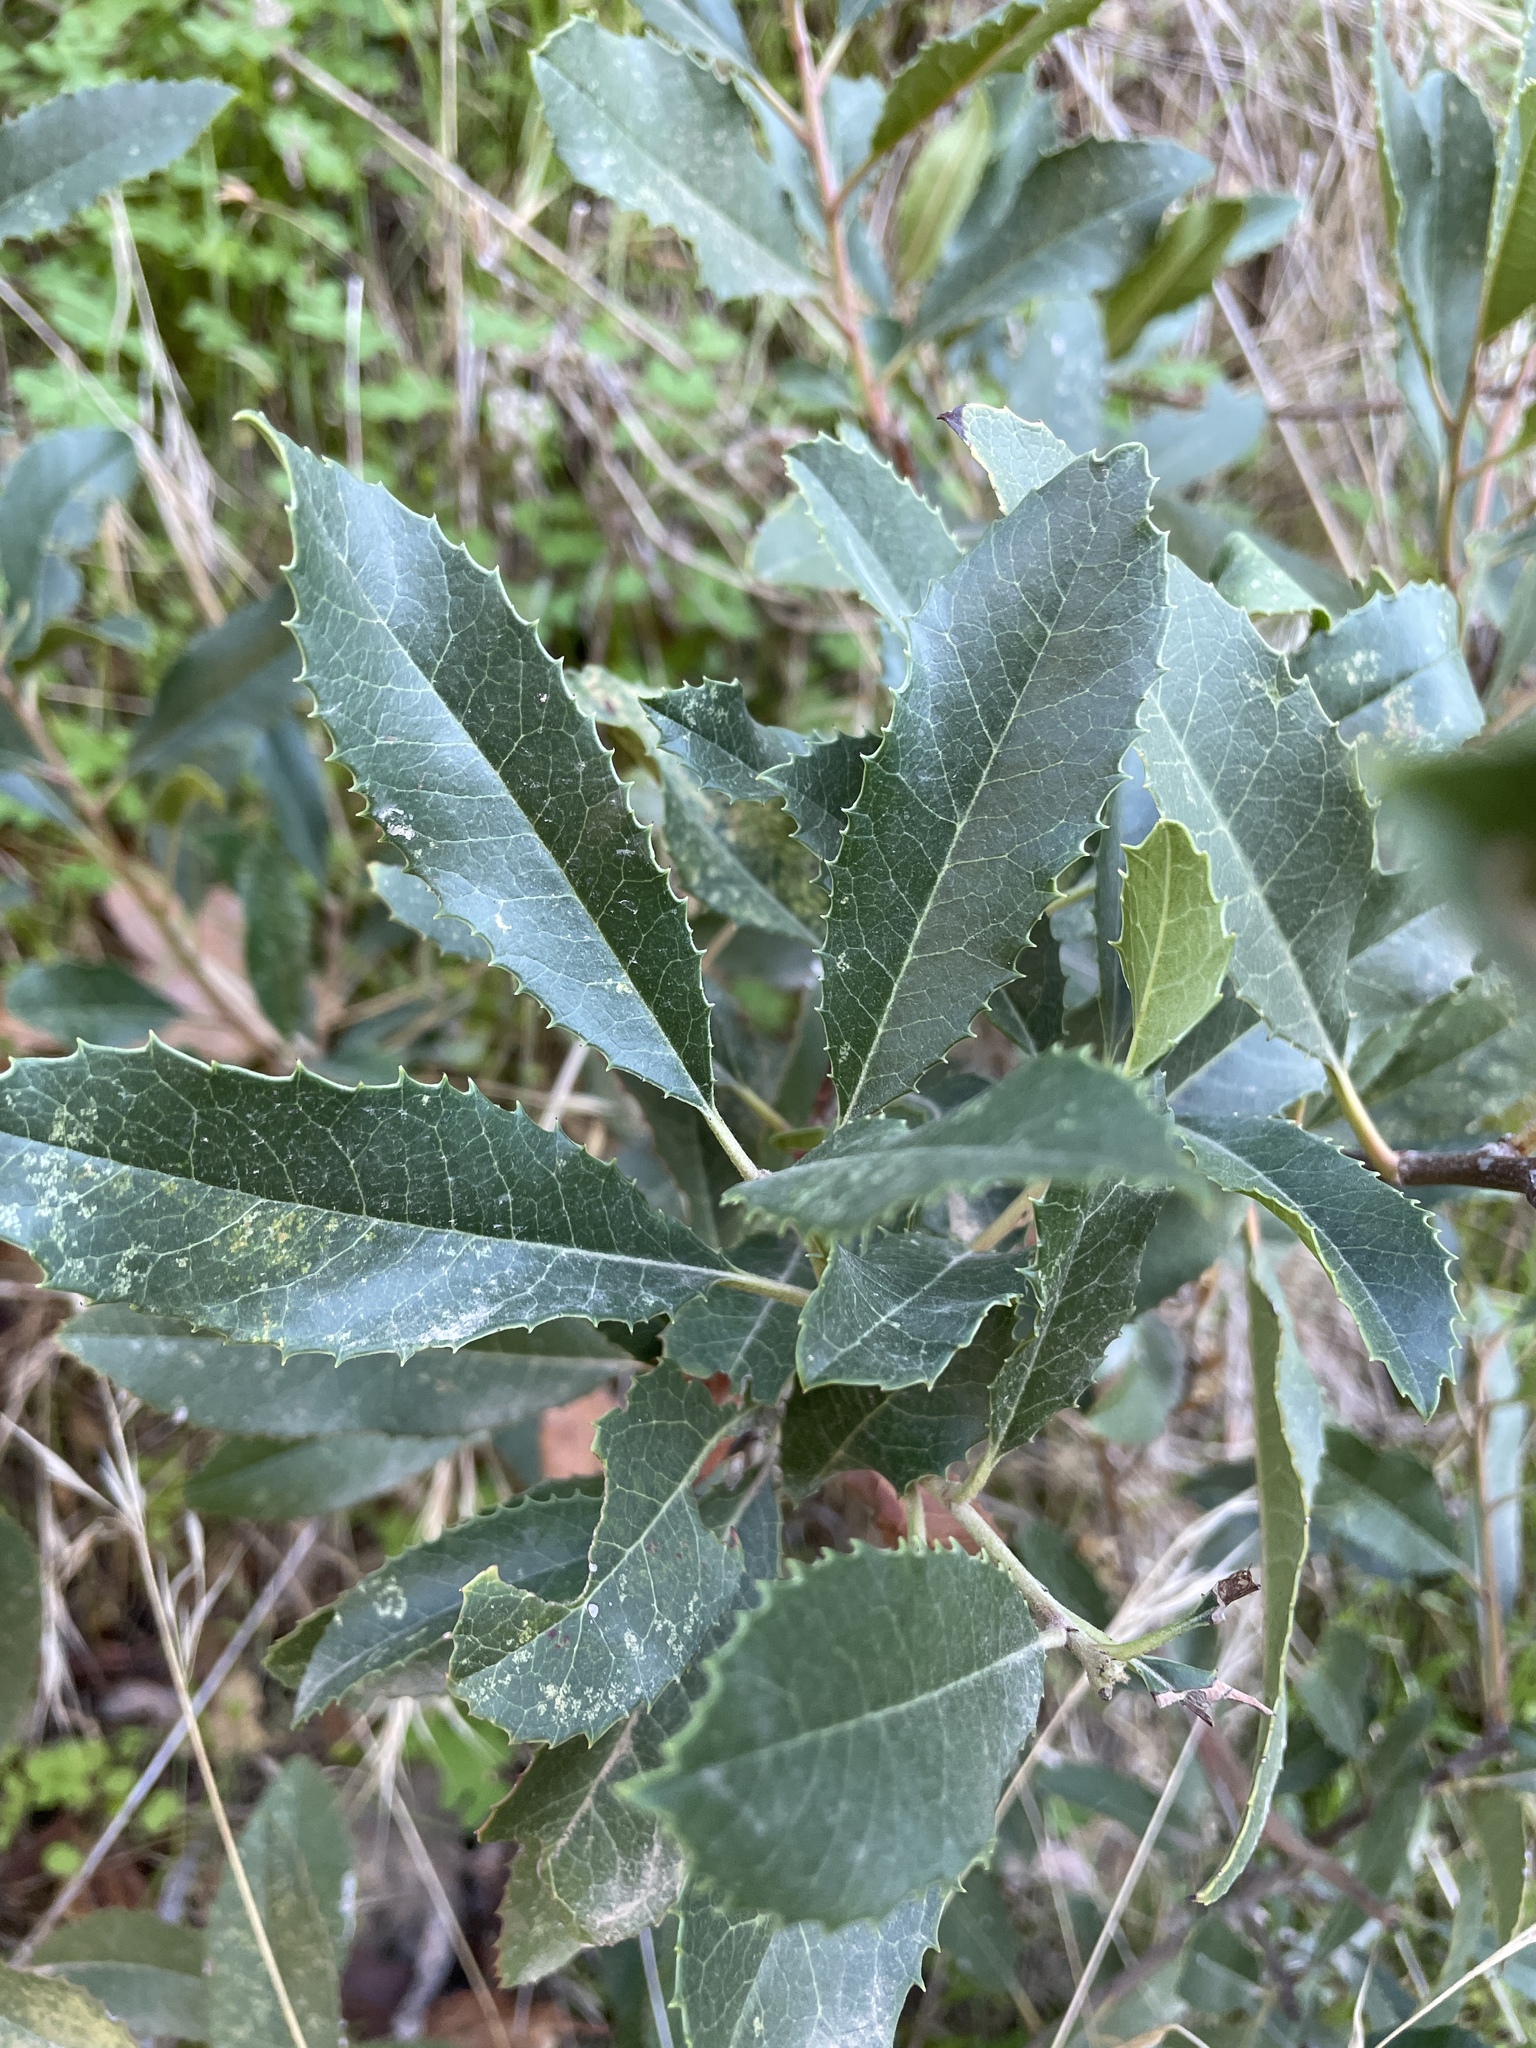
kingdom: Plantae
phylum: Tracheophyta
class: Magnoliopsida
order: Rosales
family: Rosaceae
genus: Heteromeles
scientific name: Heteromeles arbutifolia
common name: California-holly
